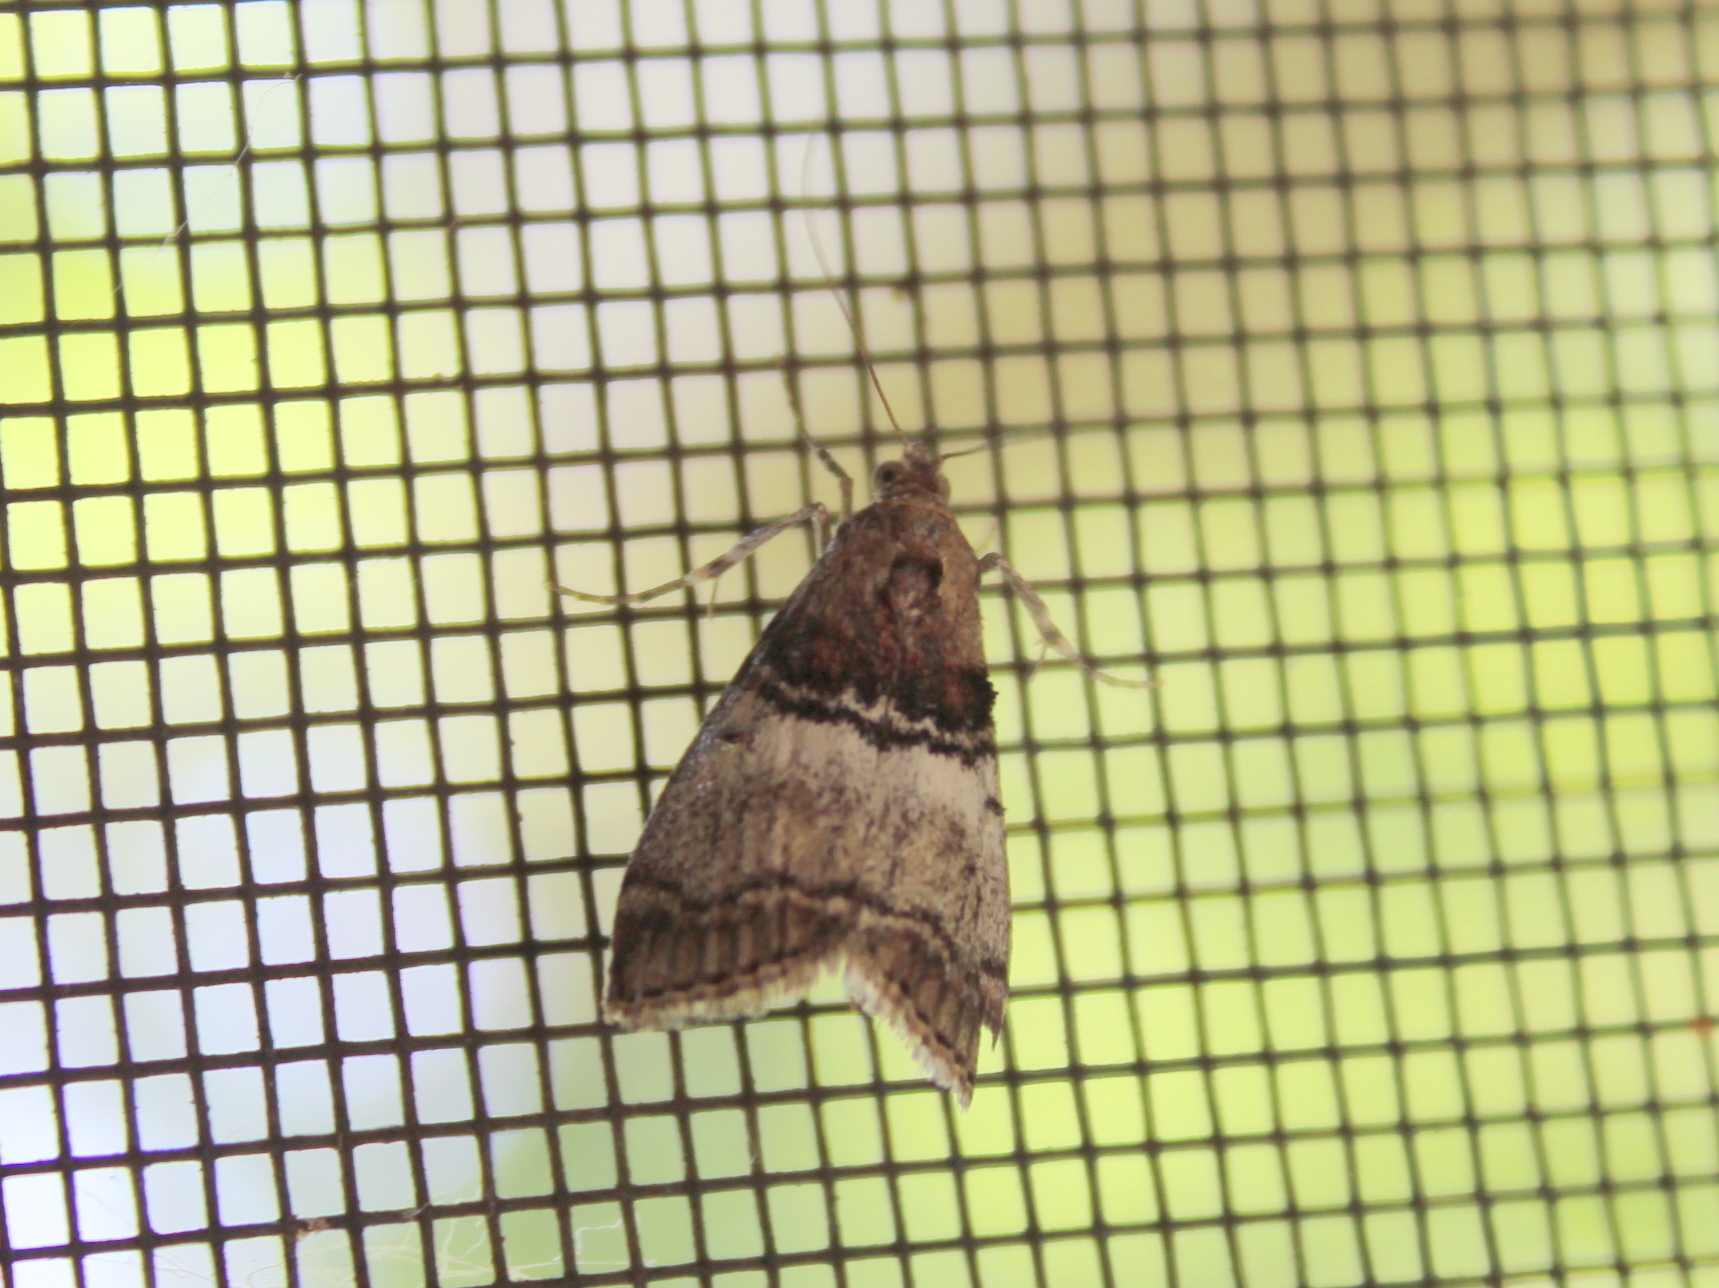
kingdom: Animalia
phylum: Arthropoda
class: Insecta
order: Lepidoptera
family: Pyralidae
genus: Pococera
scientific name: Pococera asperatella
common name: Maple webworm moth
